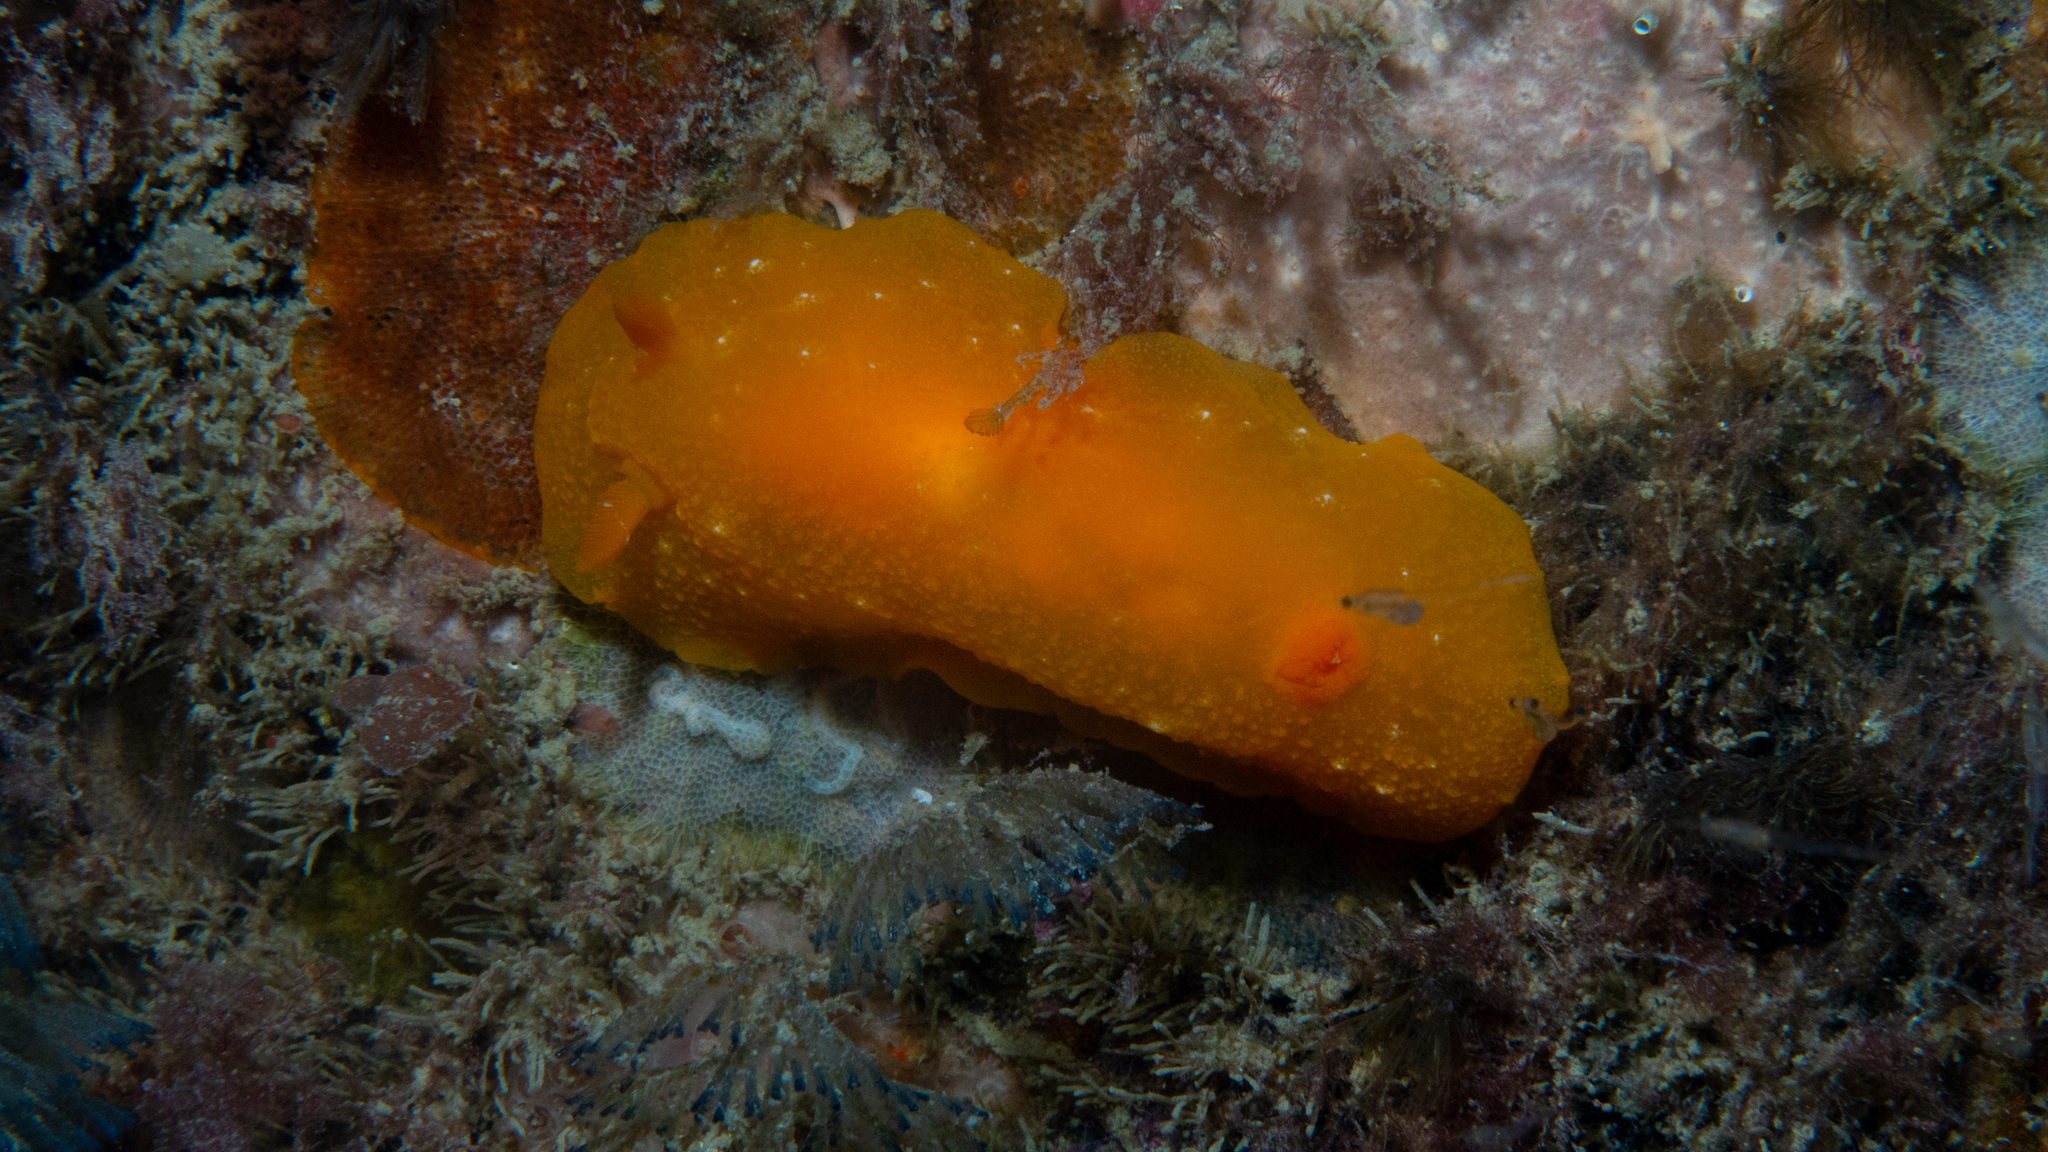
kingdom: Animalia
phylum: Mollusca
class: Gastropoda
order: Nudibranchia
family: Dendrodorididae
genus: Doriopsilla
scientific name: Doriopsilla carneola
